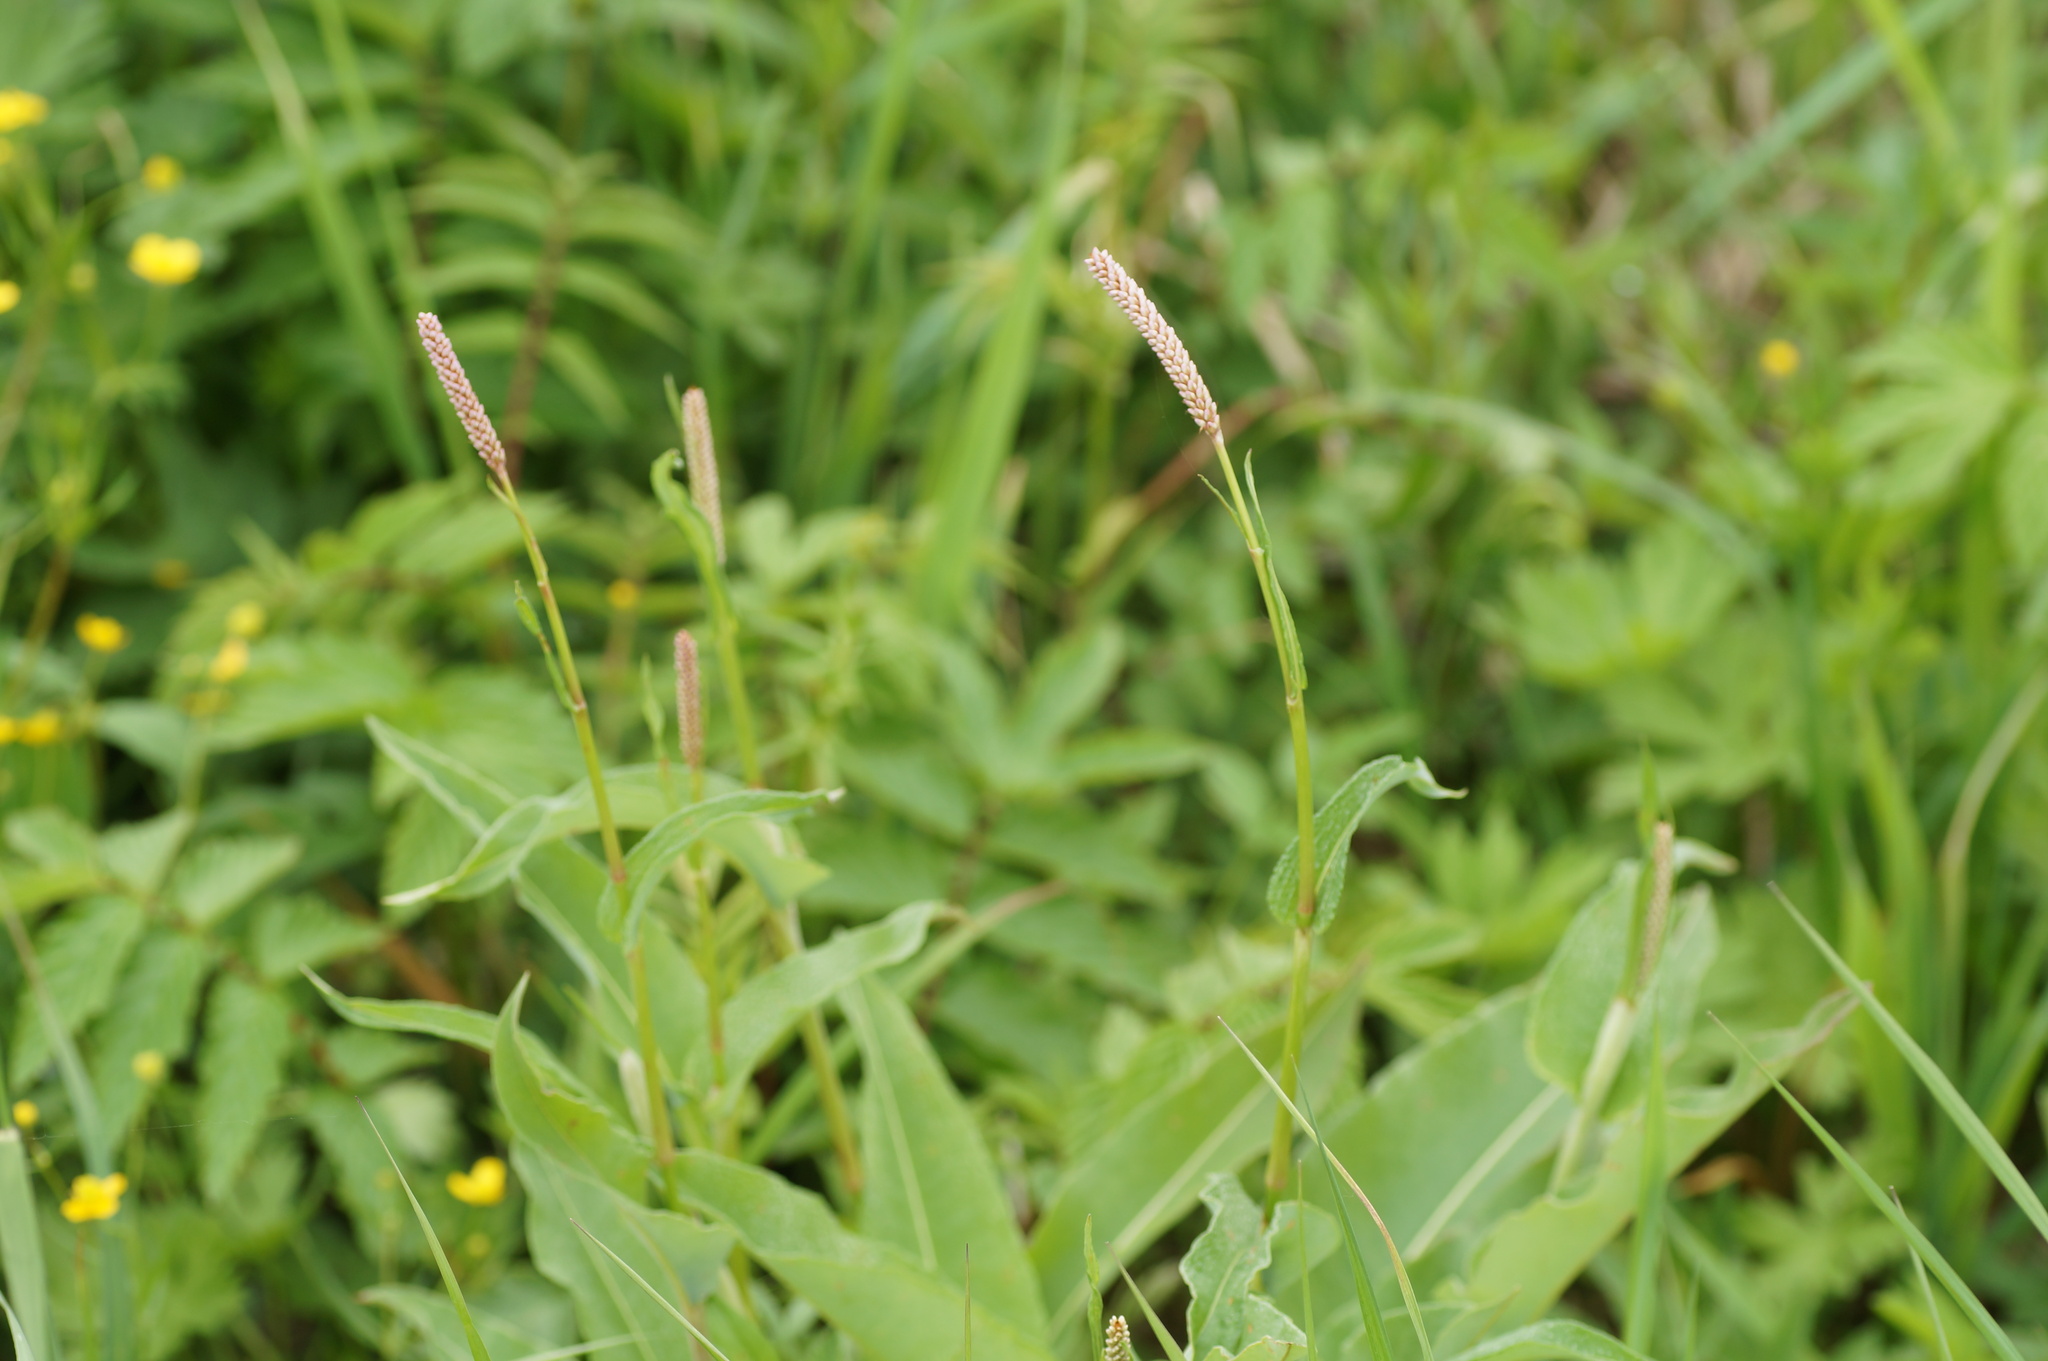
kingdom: Plantae
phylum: Tracheophyta
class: Magnoliopsida
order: Caryophyllales
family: Polygonaceae
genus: Bistorta
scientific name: Bistorta officinalis
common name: Common bistort
